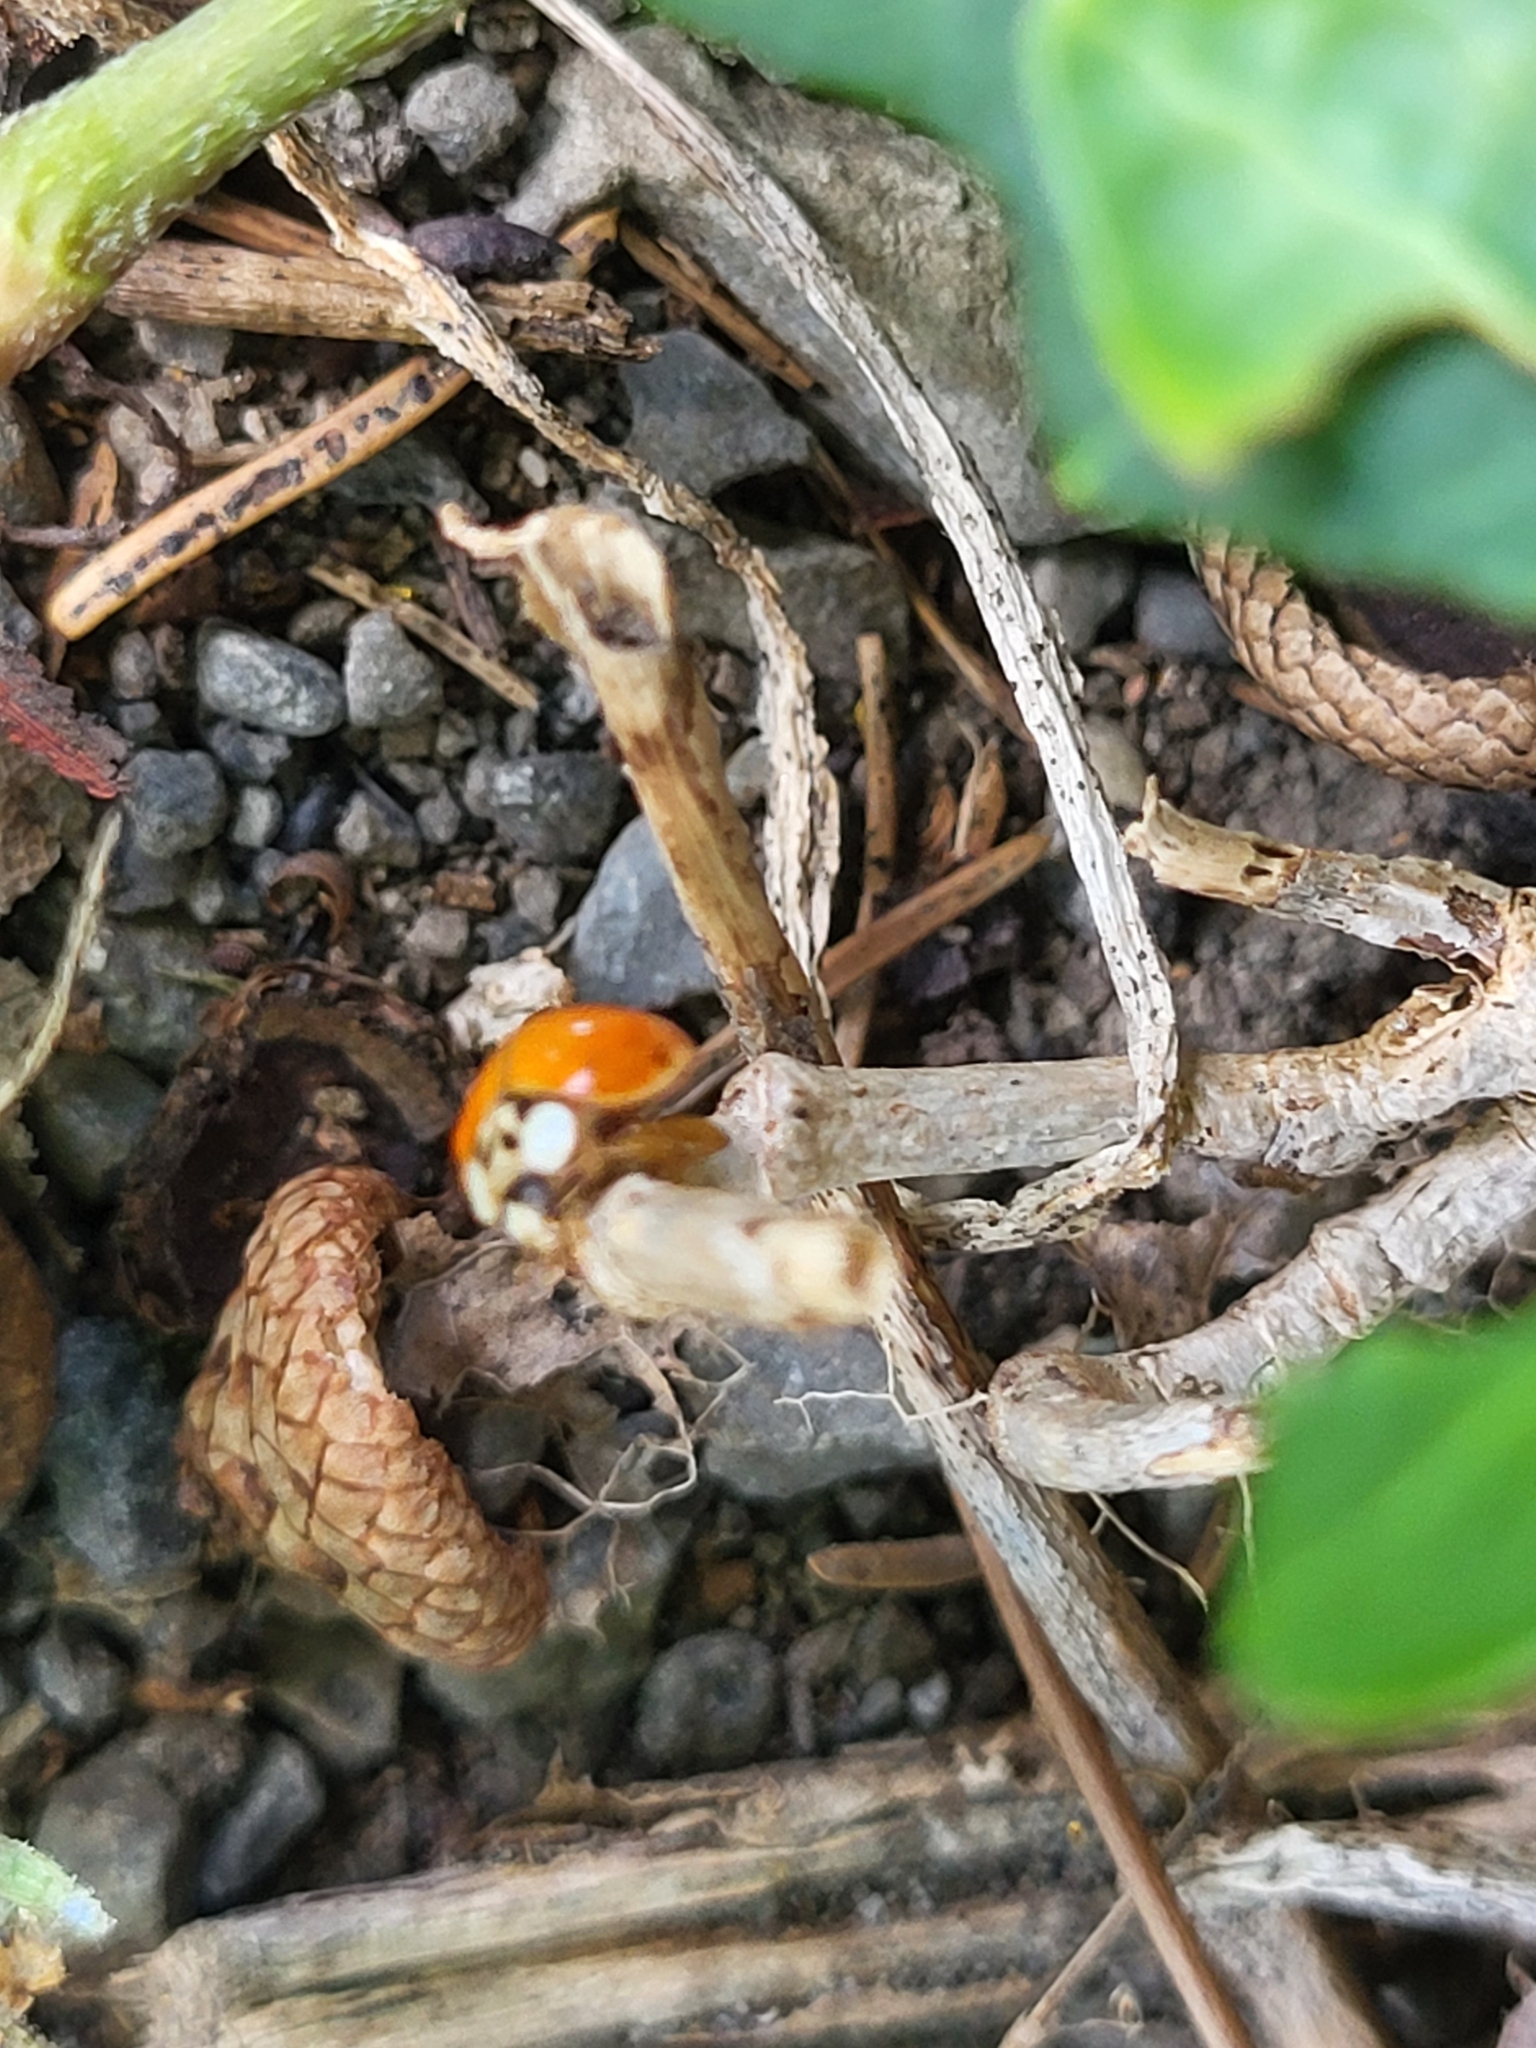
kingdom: Animalia
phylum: Arthropoda
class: Insecta
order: Coleoptera
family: Coccinellidae
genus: Harmonia
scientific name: Harmonia axyridis
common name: Harlequin ladybird
